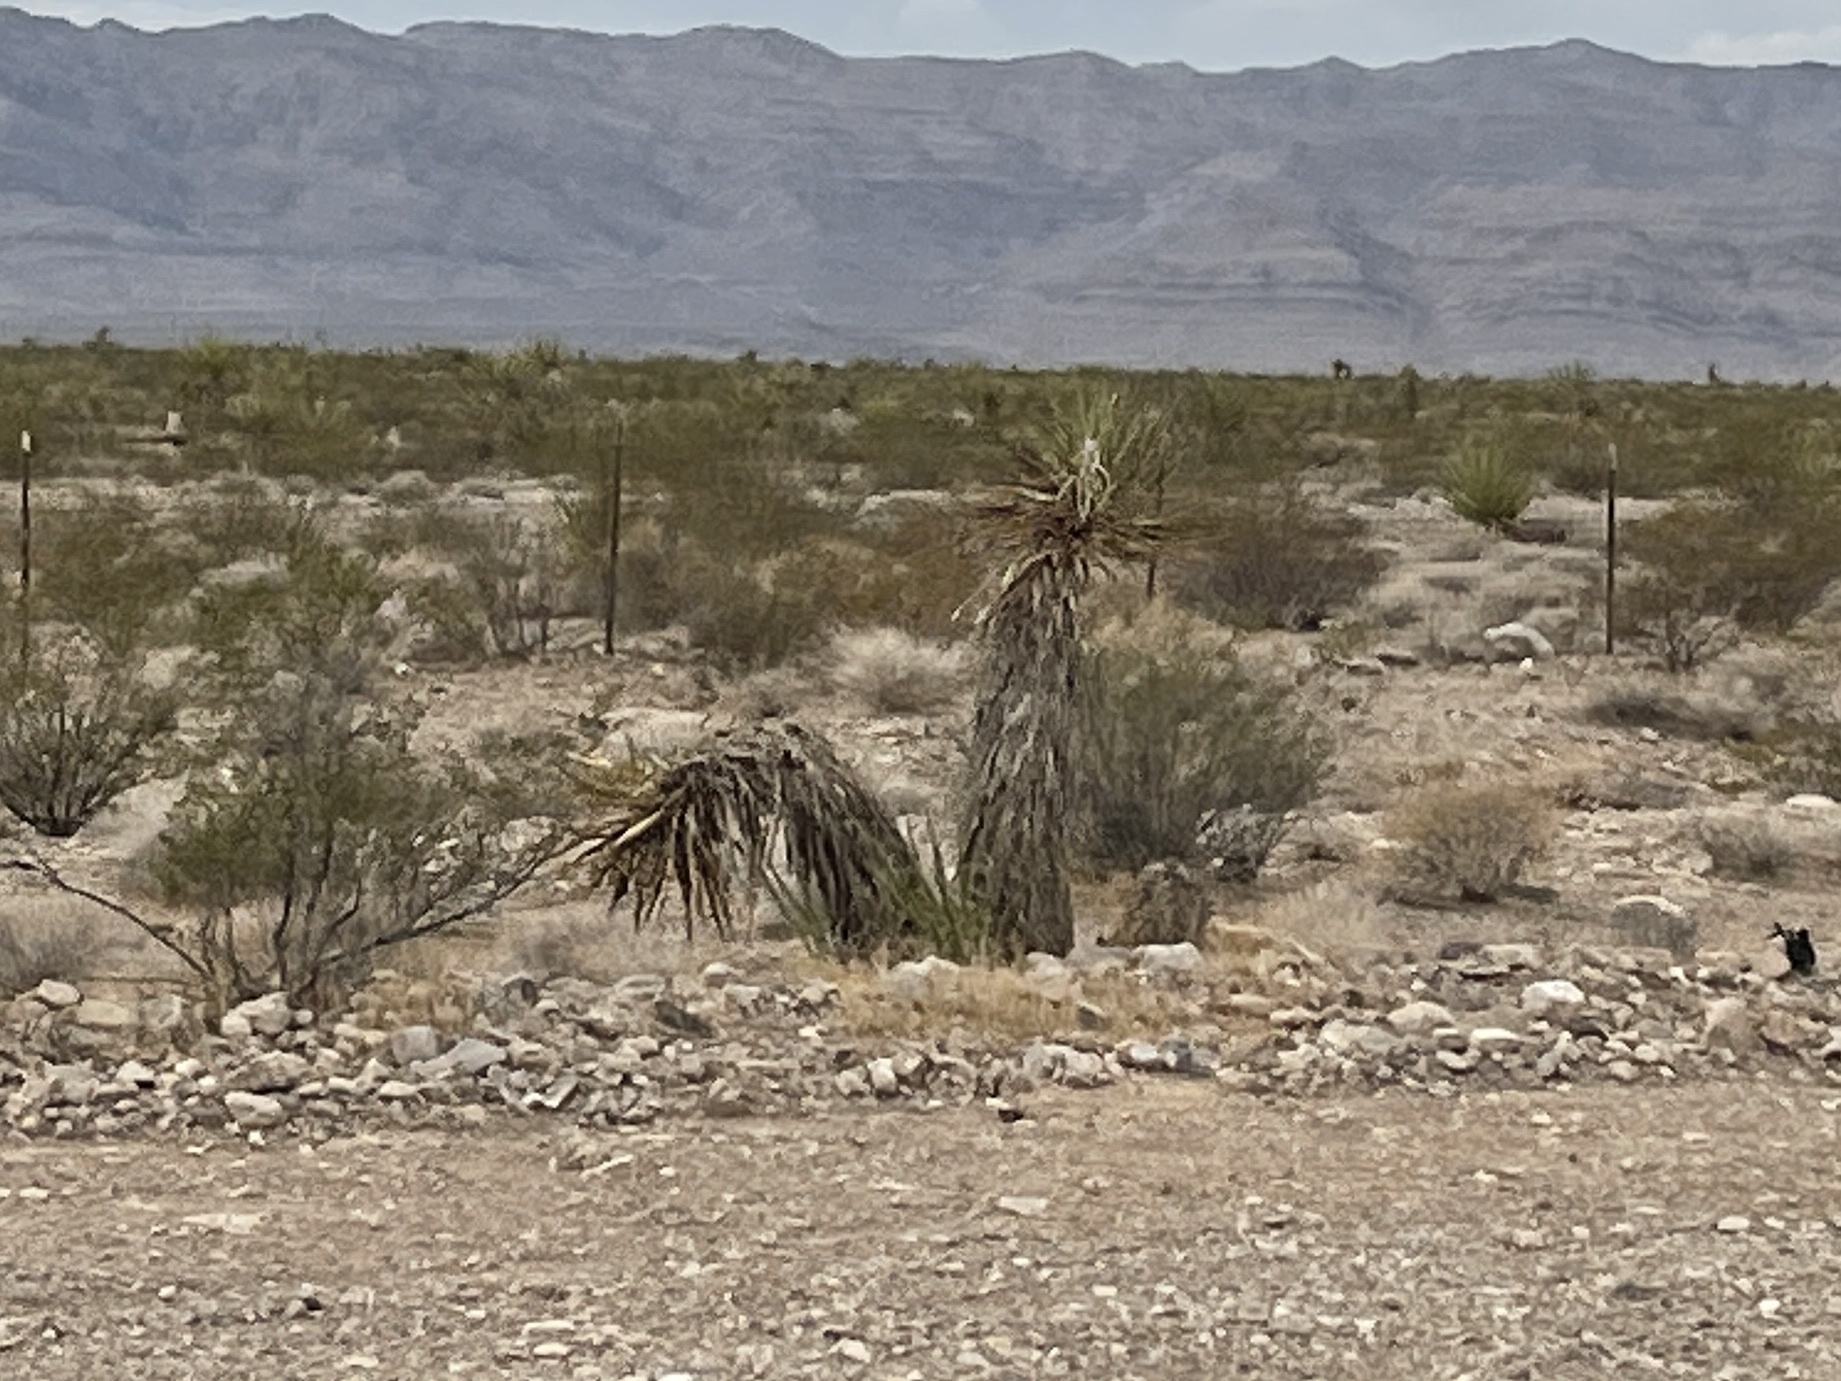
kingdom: Plantae
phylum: Tracheophyta
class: Liliopsida
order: Asparagales
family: Asparagaceae
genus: Yucca
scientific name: Yucca schidigera
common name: Mojave yucca
